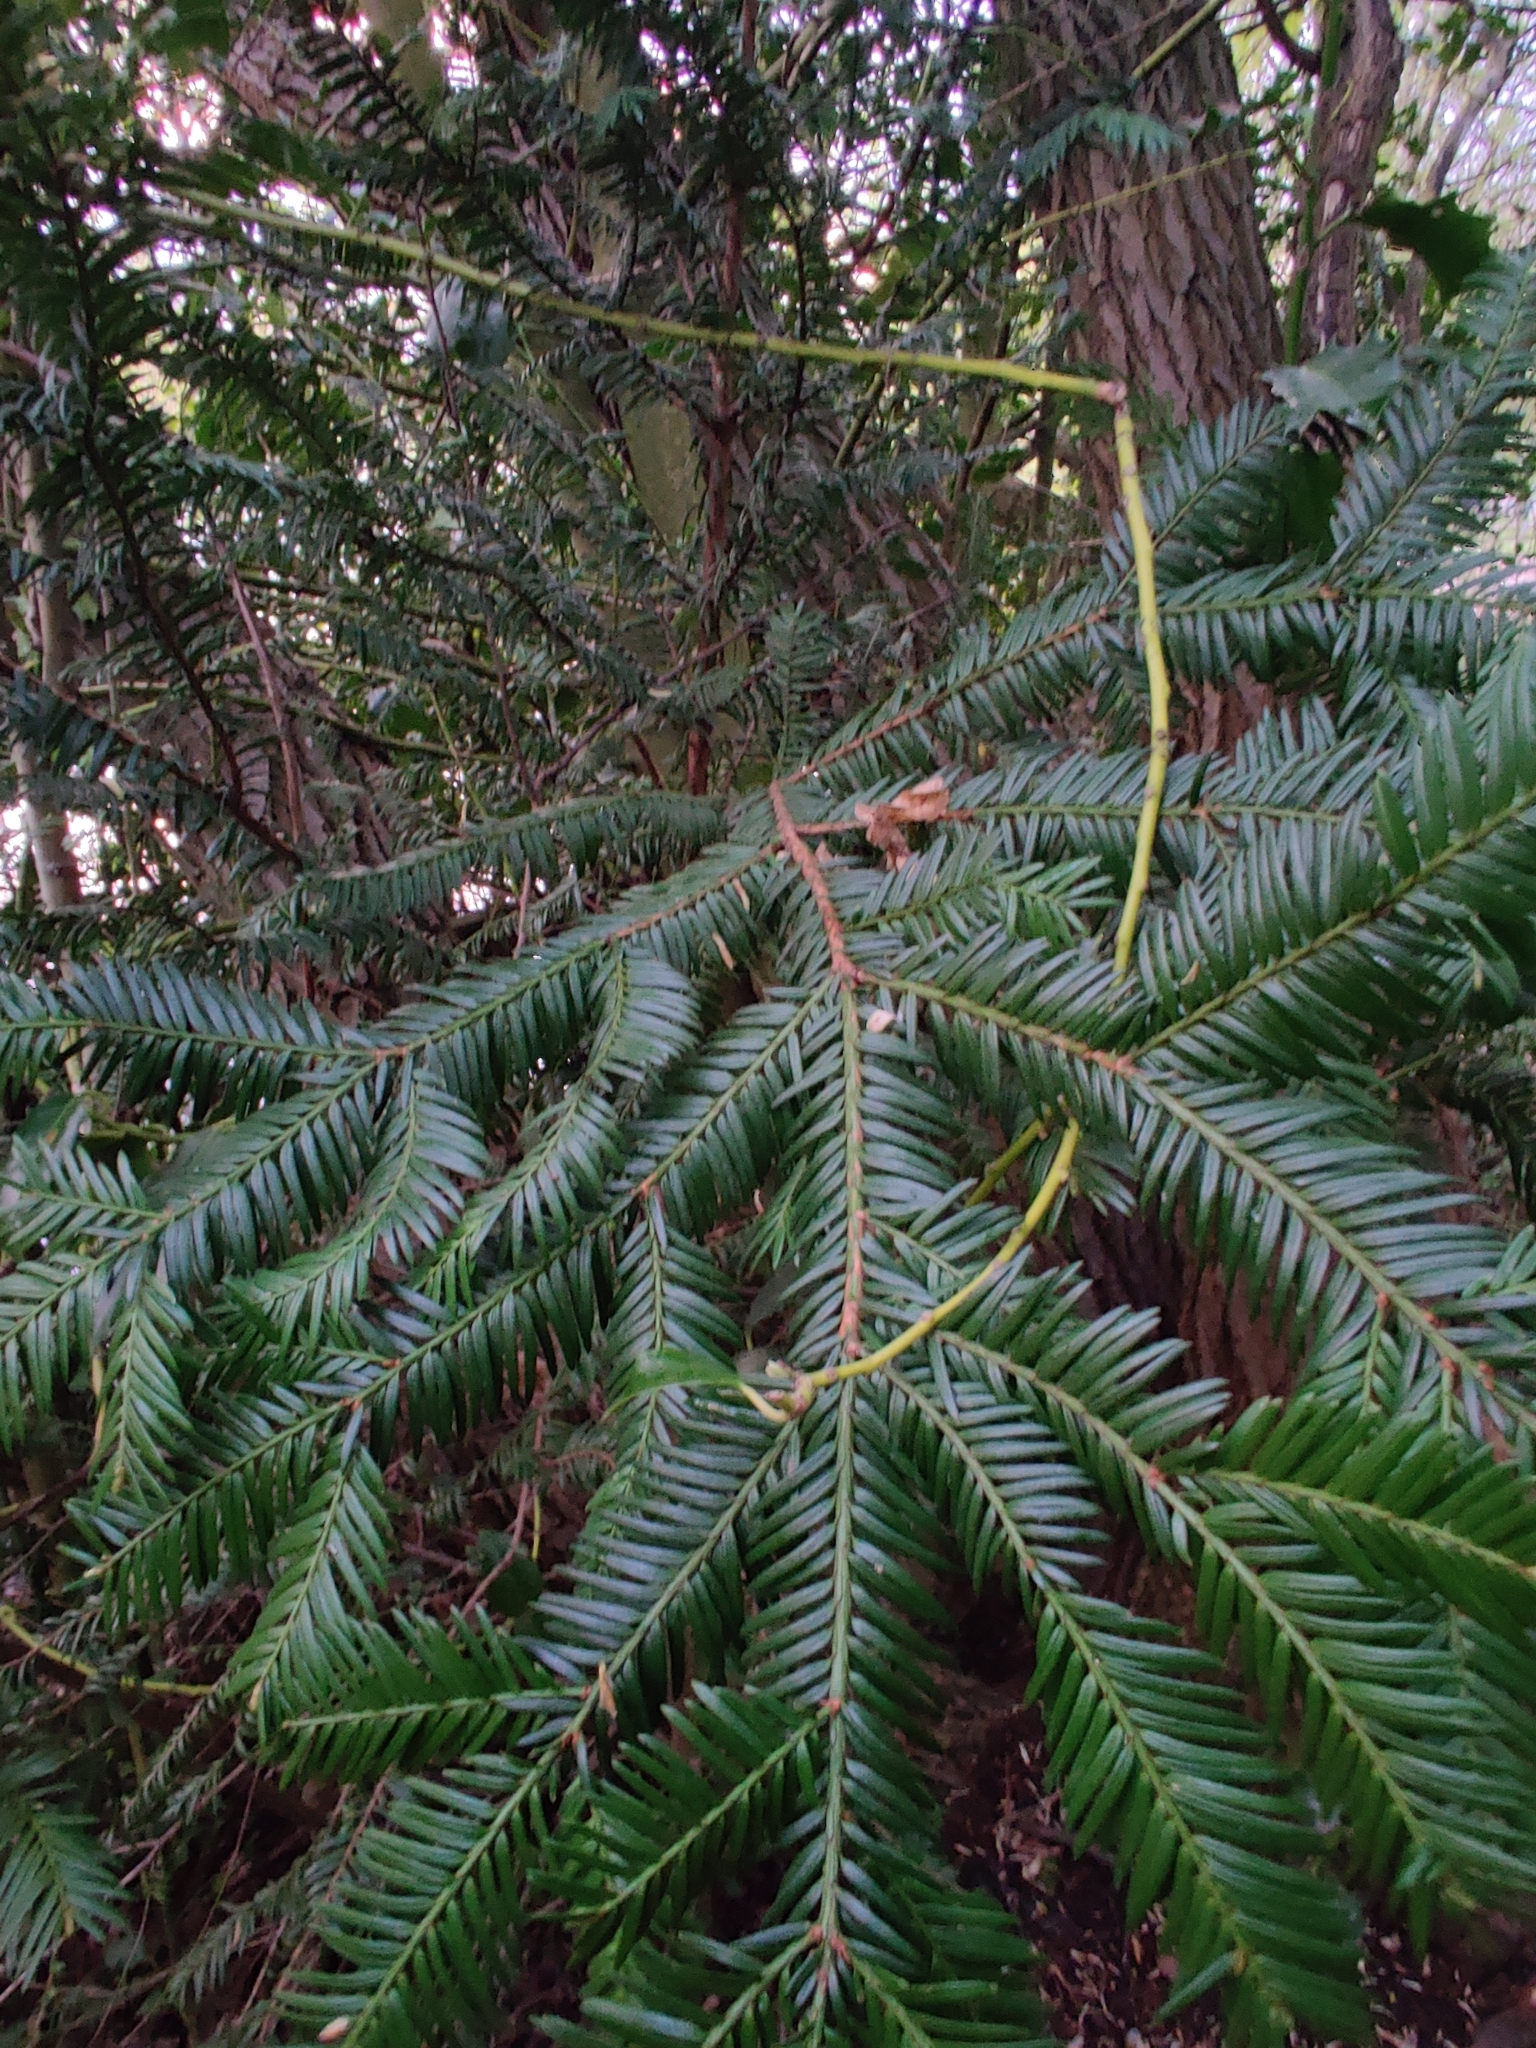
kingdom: Plantae
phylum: Tracheophyta
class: Pinopsida
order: Pinales
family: Taxaceae
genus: Taxus
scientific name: Taxus baccata
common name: Yew
